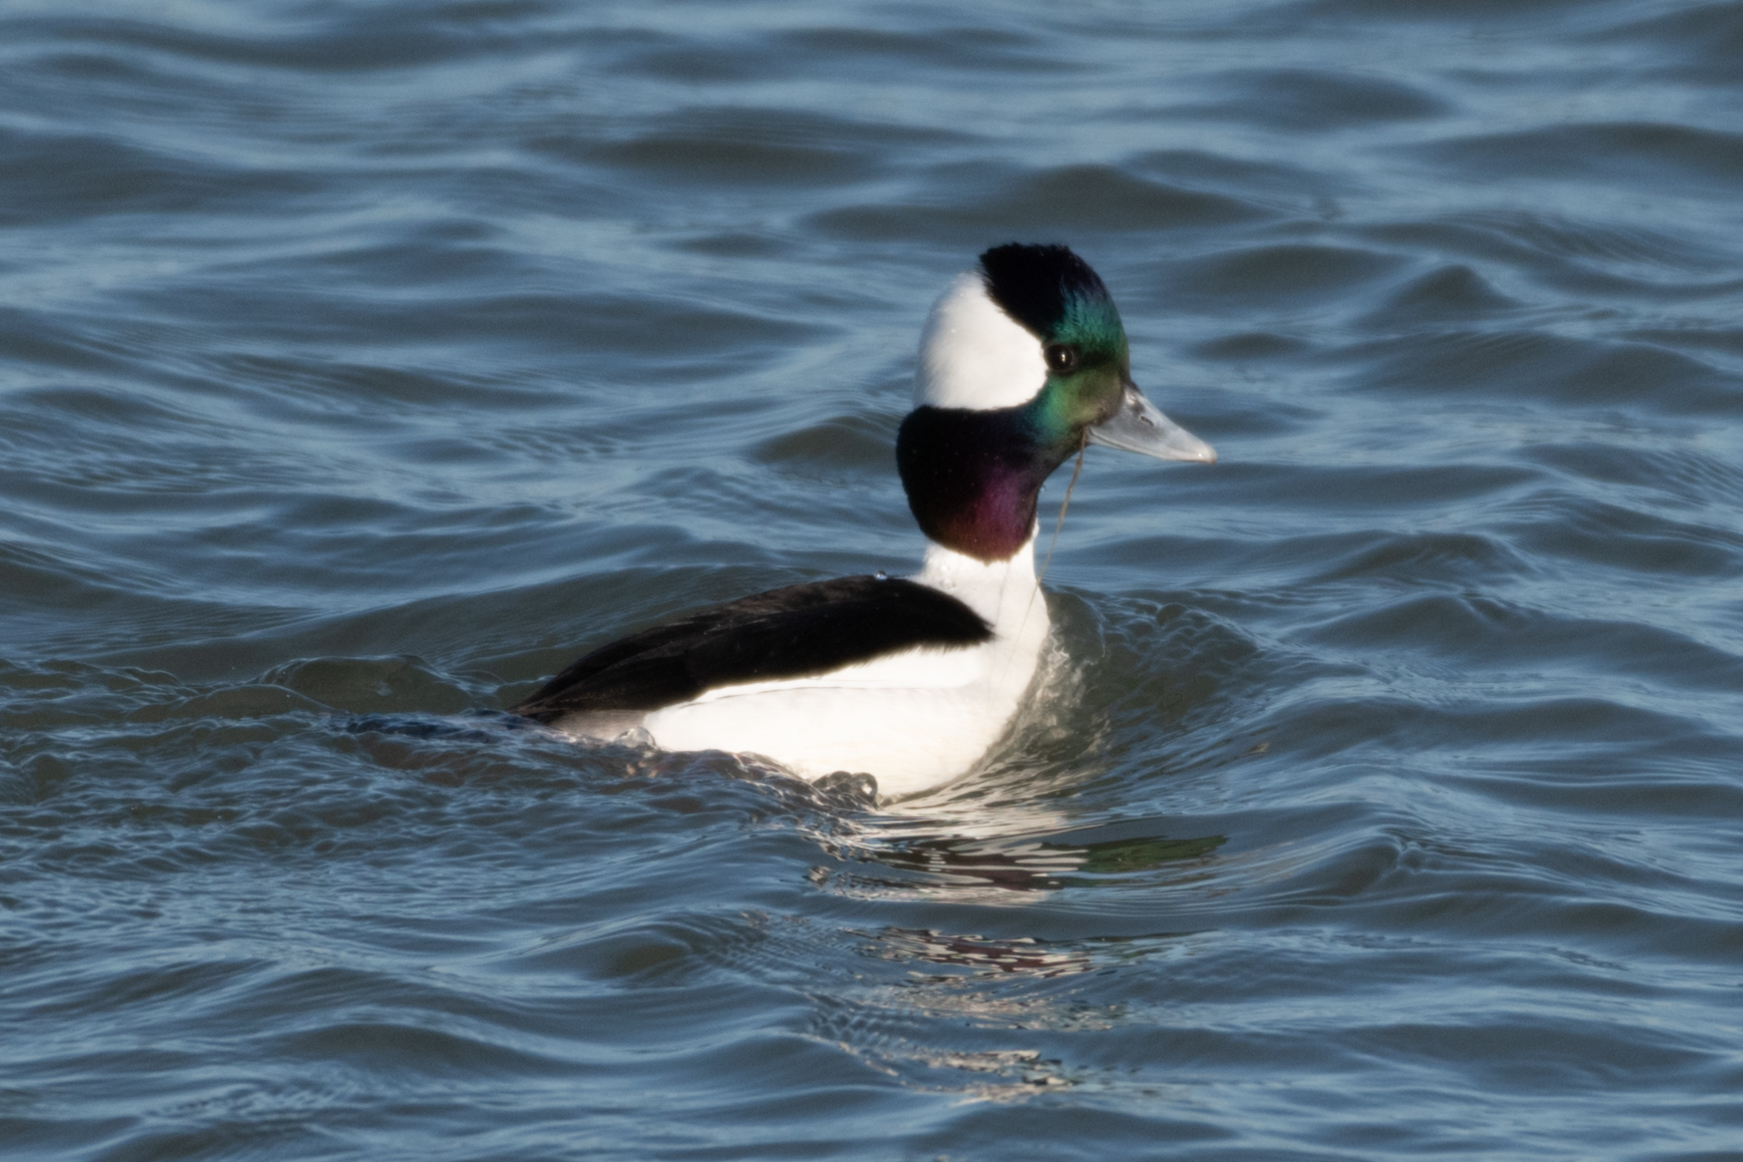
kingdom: Animalia
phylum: Chordata
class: Aves
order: Anseriformes
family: Anatidae
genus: Bucephala
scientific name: Bucephala albeola
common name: Bufflehead
